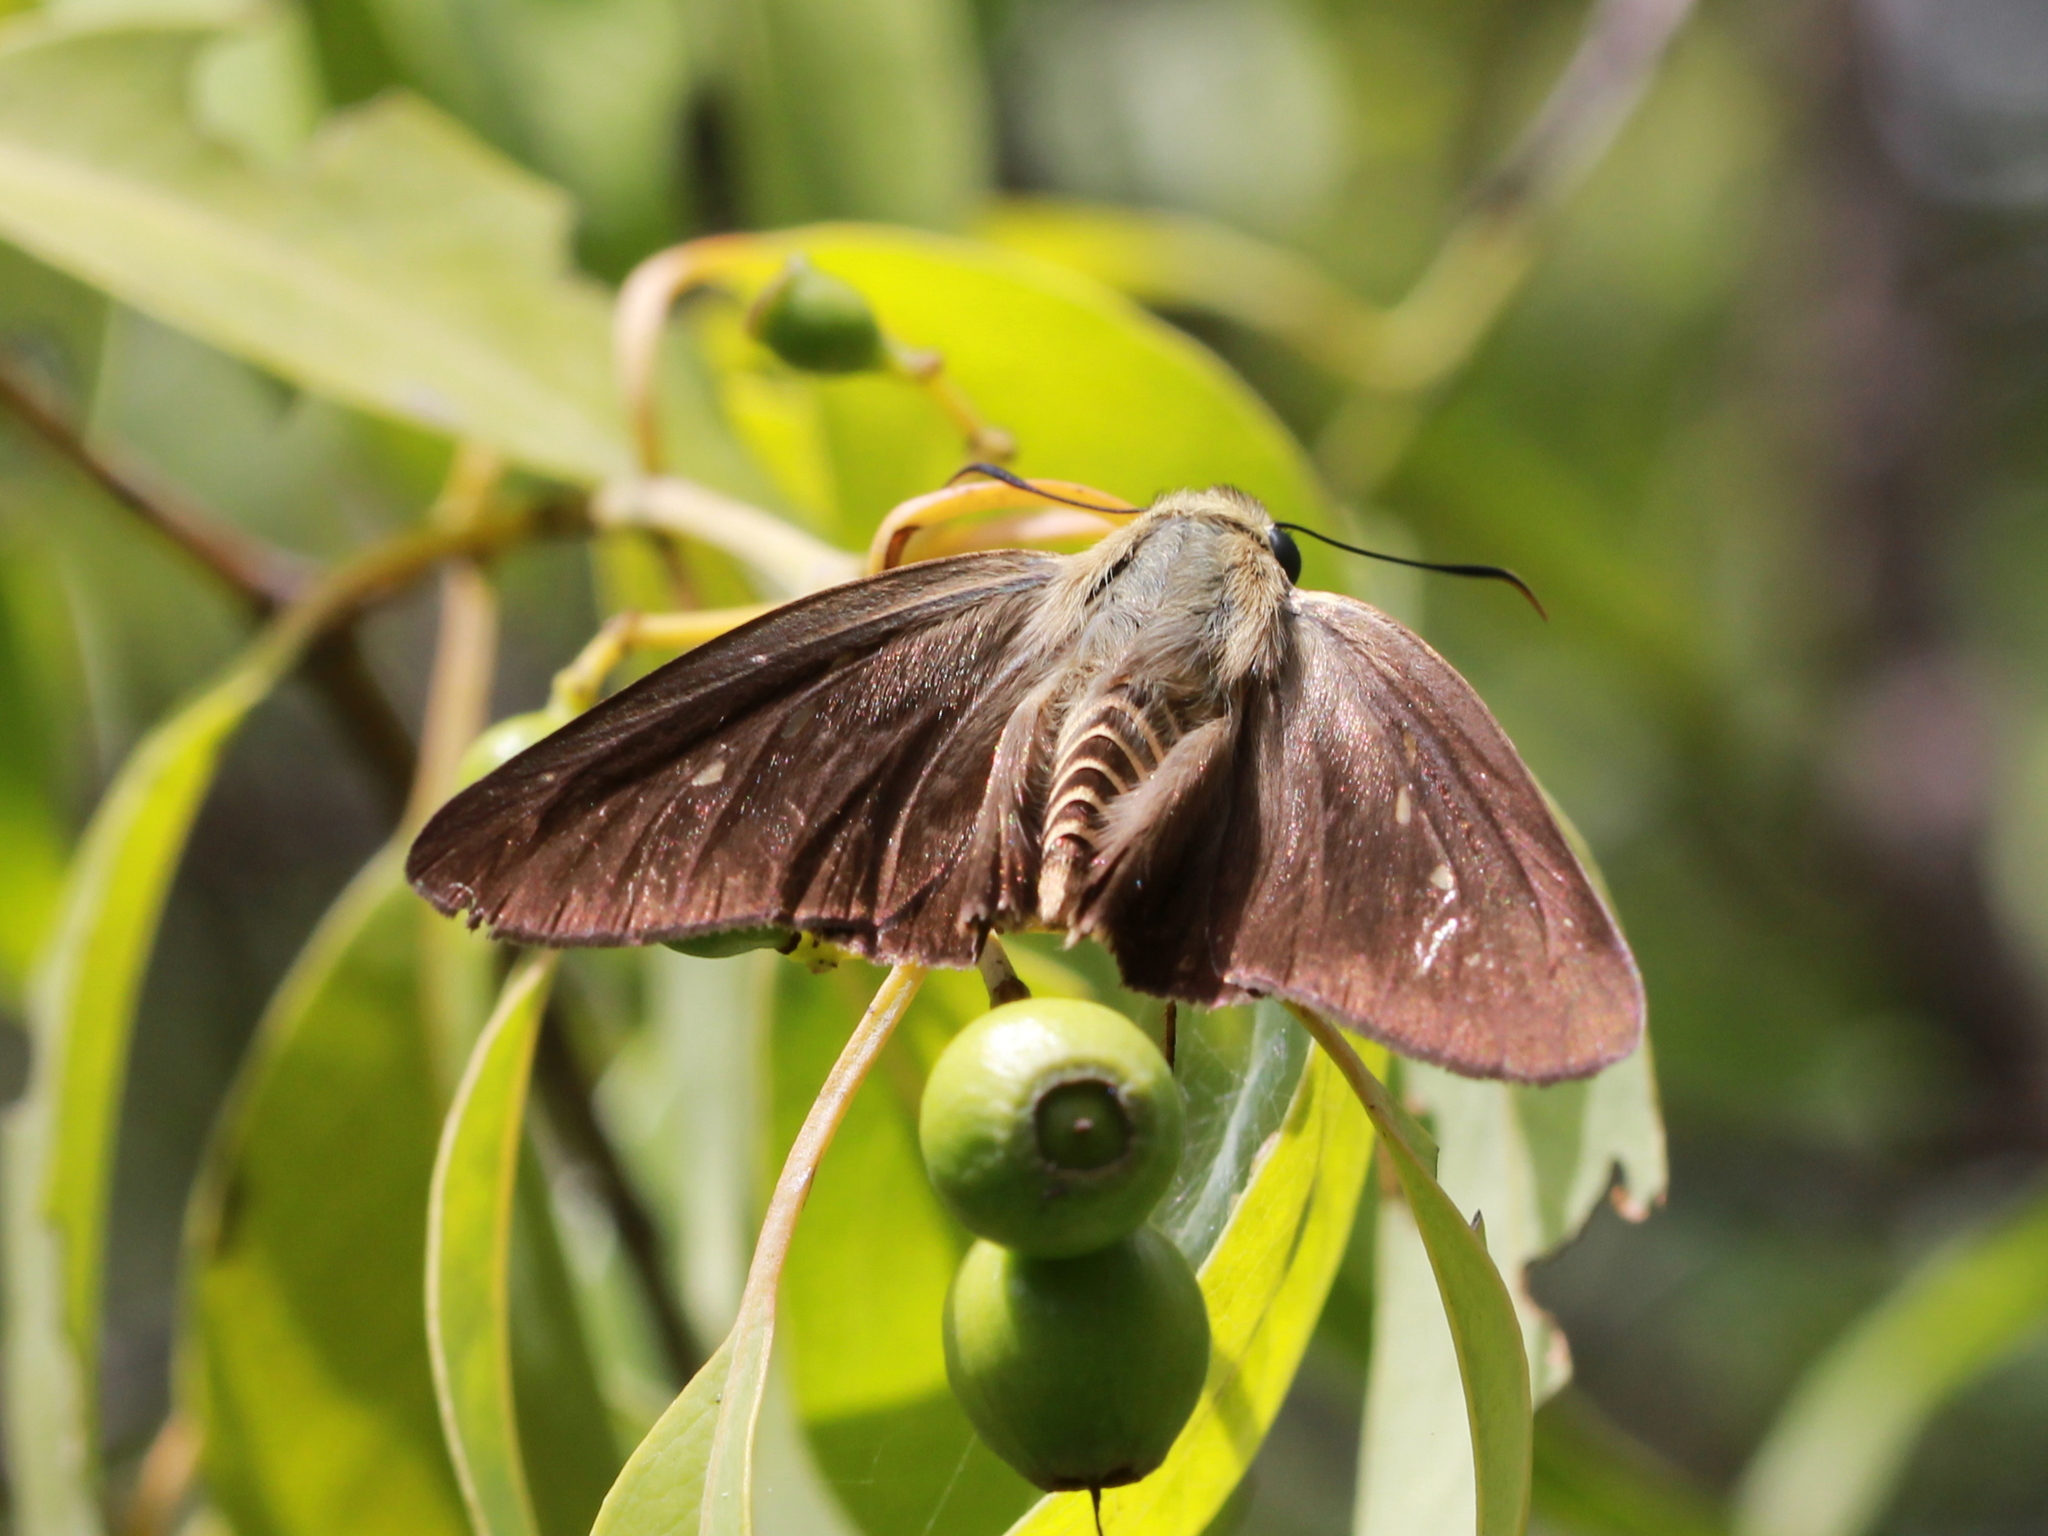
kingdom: Animalia
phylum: Arthropoda
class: Insecta
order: Lepidoptera
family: Hesperiidae
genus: Badamia
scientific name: Badamia exclamationis
